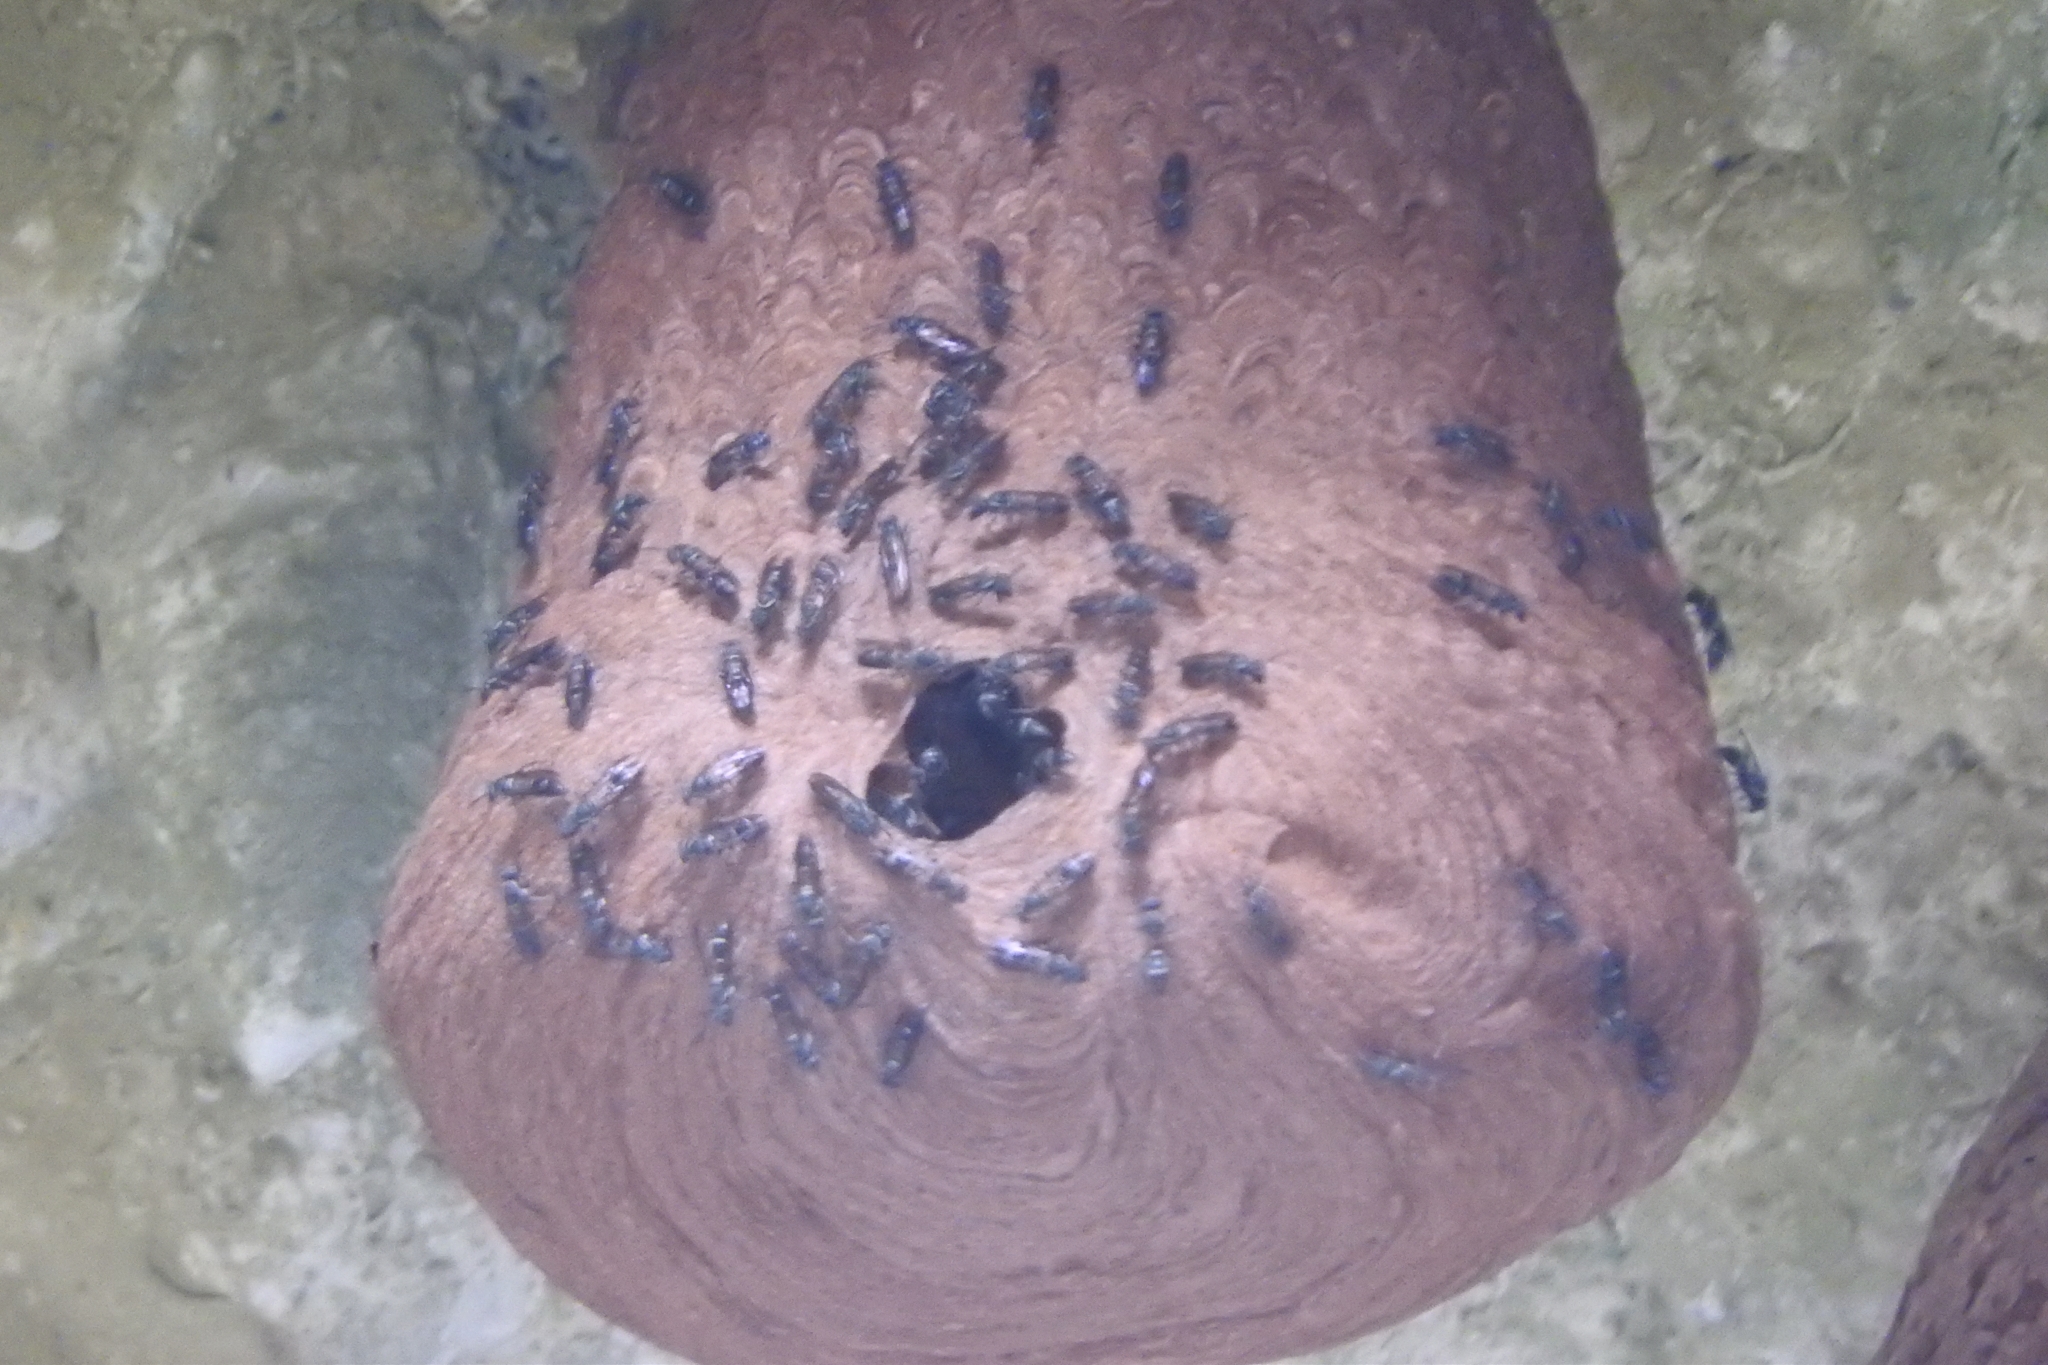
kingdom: Animalia
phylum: Arthropoda
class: Insecta
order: Hymenoptera
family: Eumenidae
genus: Polybia
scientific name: Polybia plebeja
